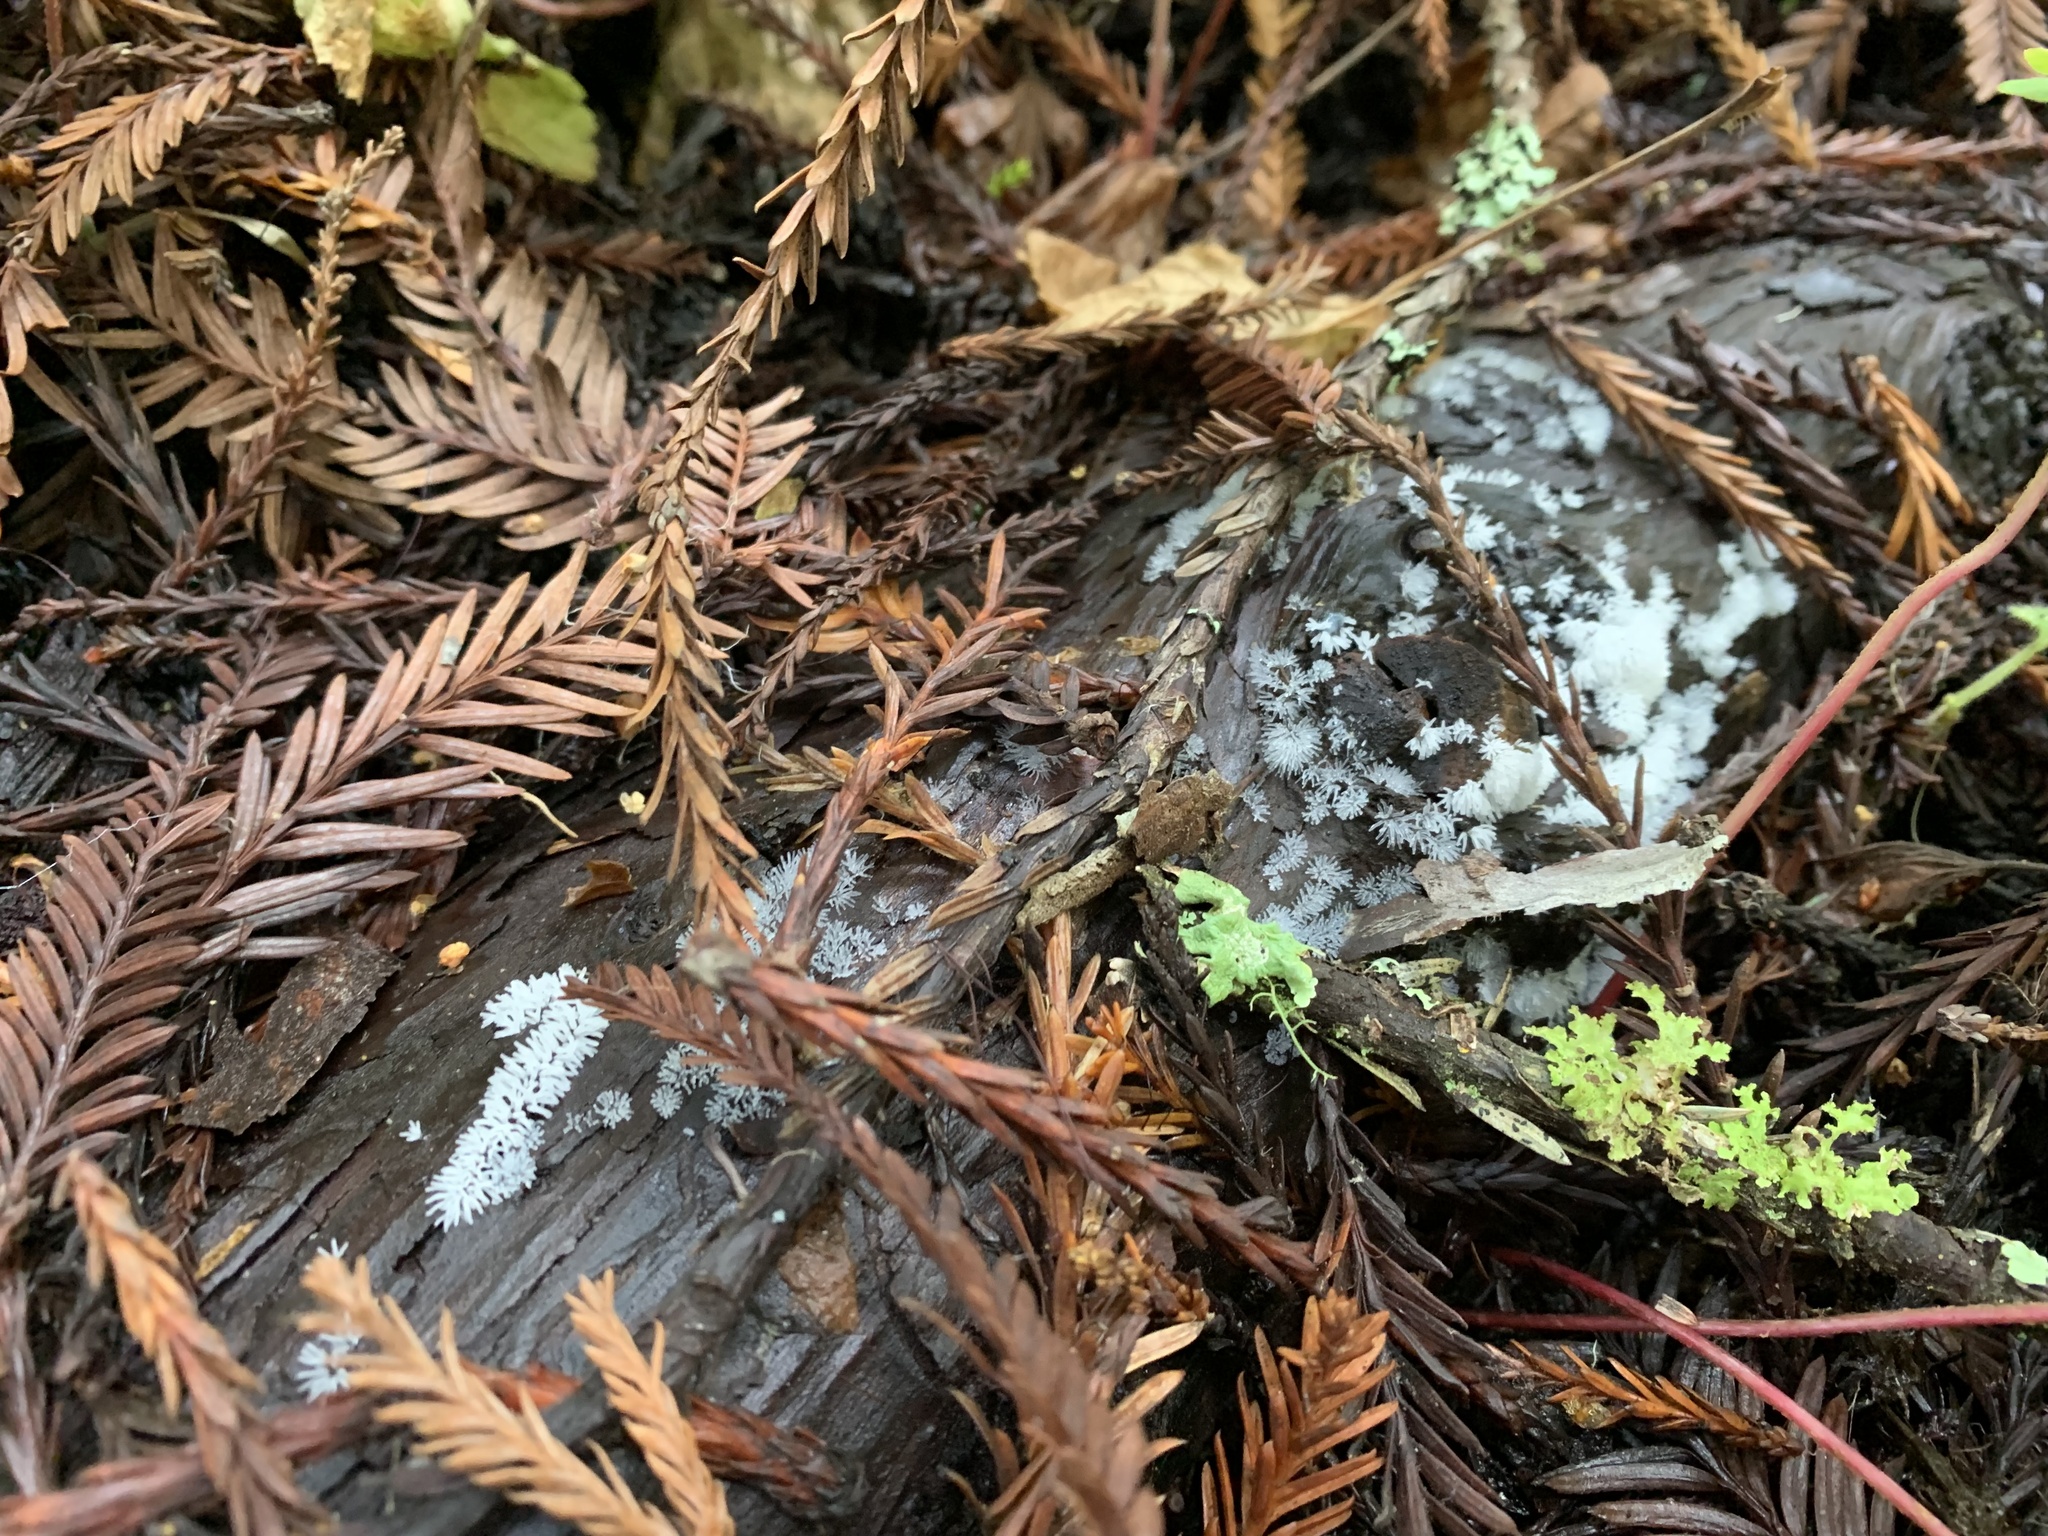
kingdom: Protozoa
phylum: Mycetozoa
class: Protosteliomycetes
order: Ceratiomyxales
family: Ceratiomyxaceae
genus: Ceratiomyxa
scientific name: Ceratiomyxa fruticulosa
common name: Honeycomb coral slime mold
